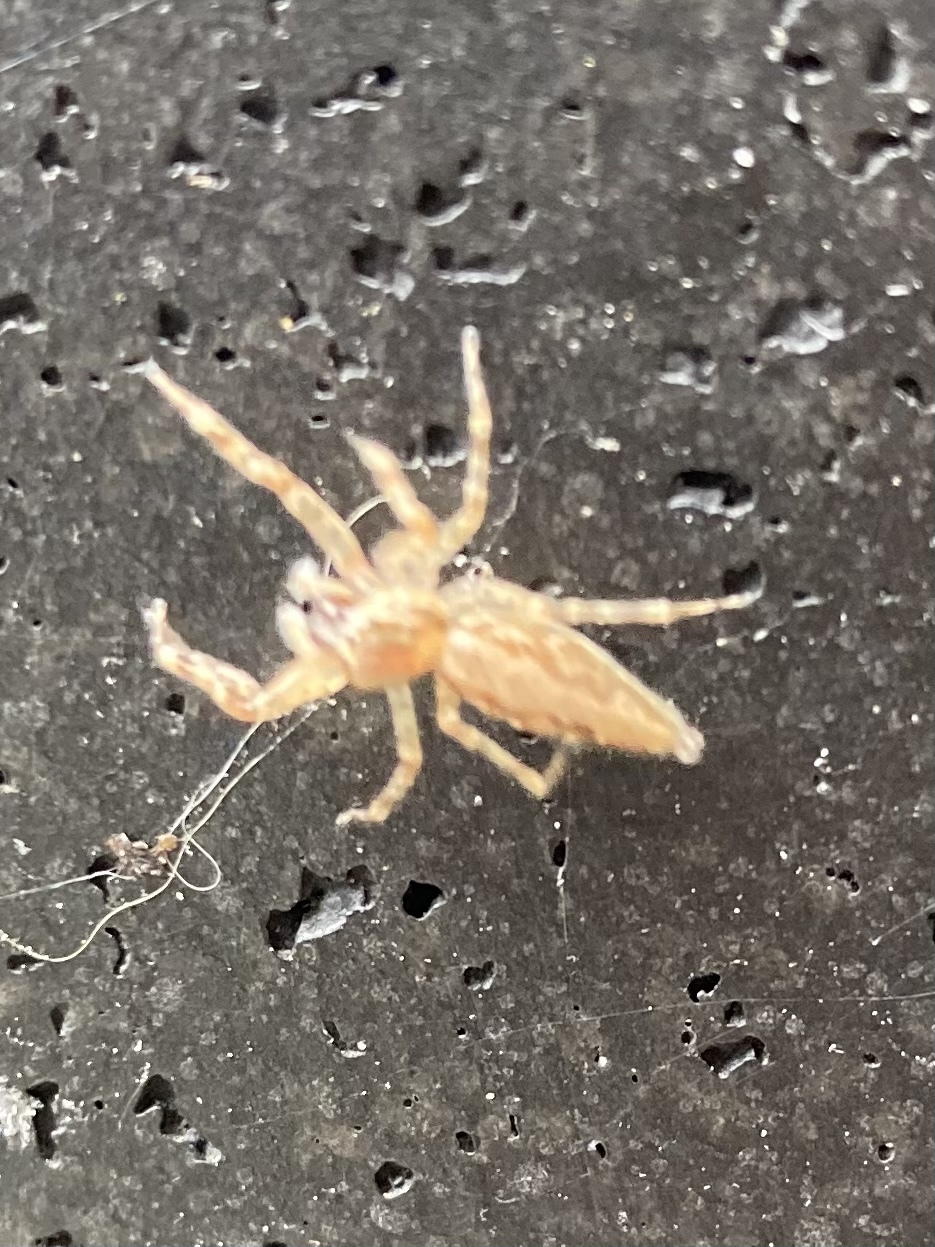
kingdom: Animalia
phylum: Arthropoda
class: Arachnida
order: Araneae
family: Salticidae
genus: Helpis
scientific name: Helpis minitabunda
